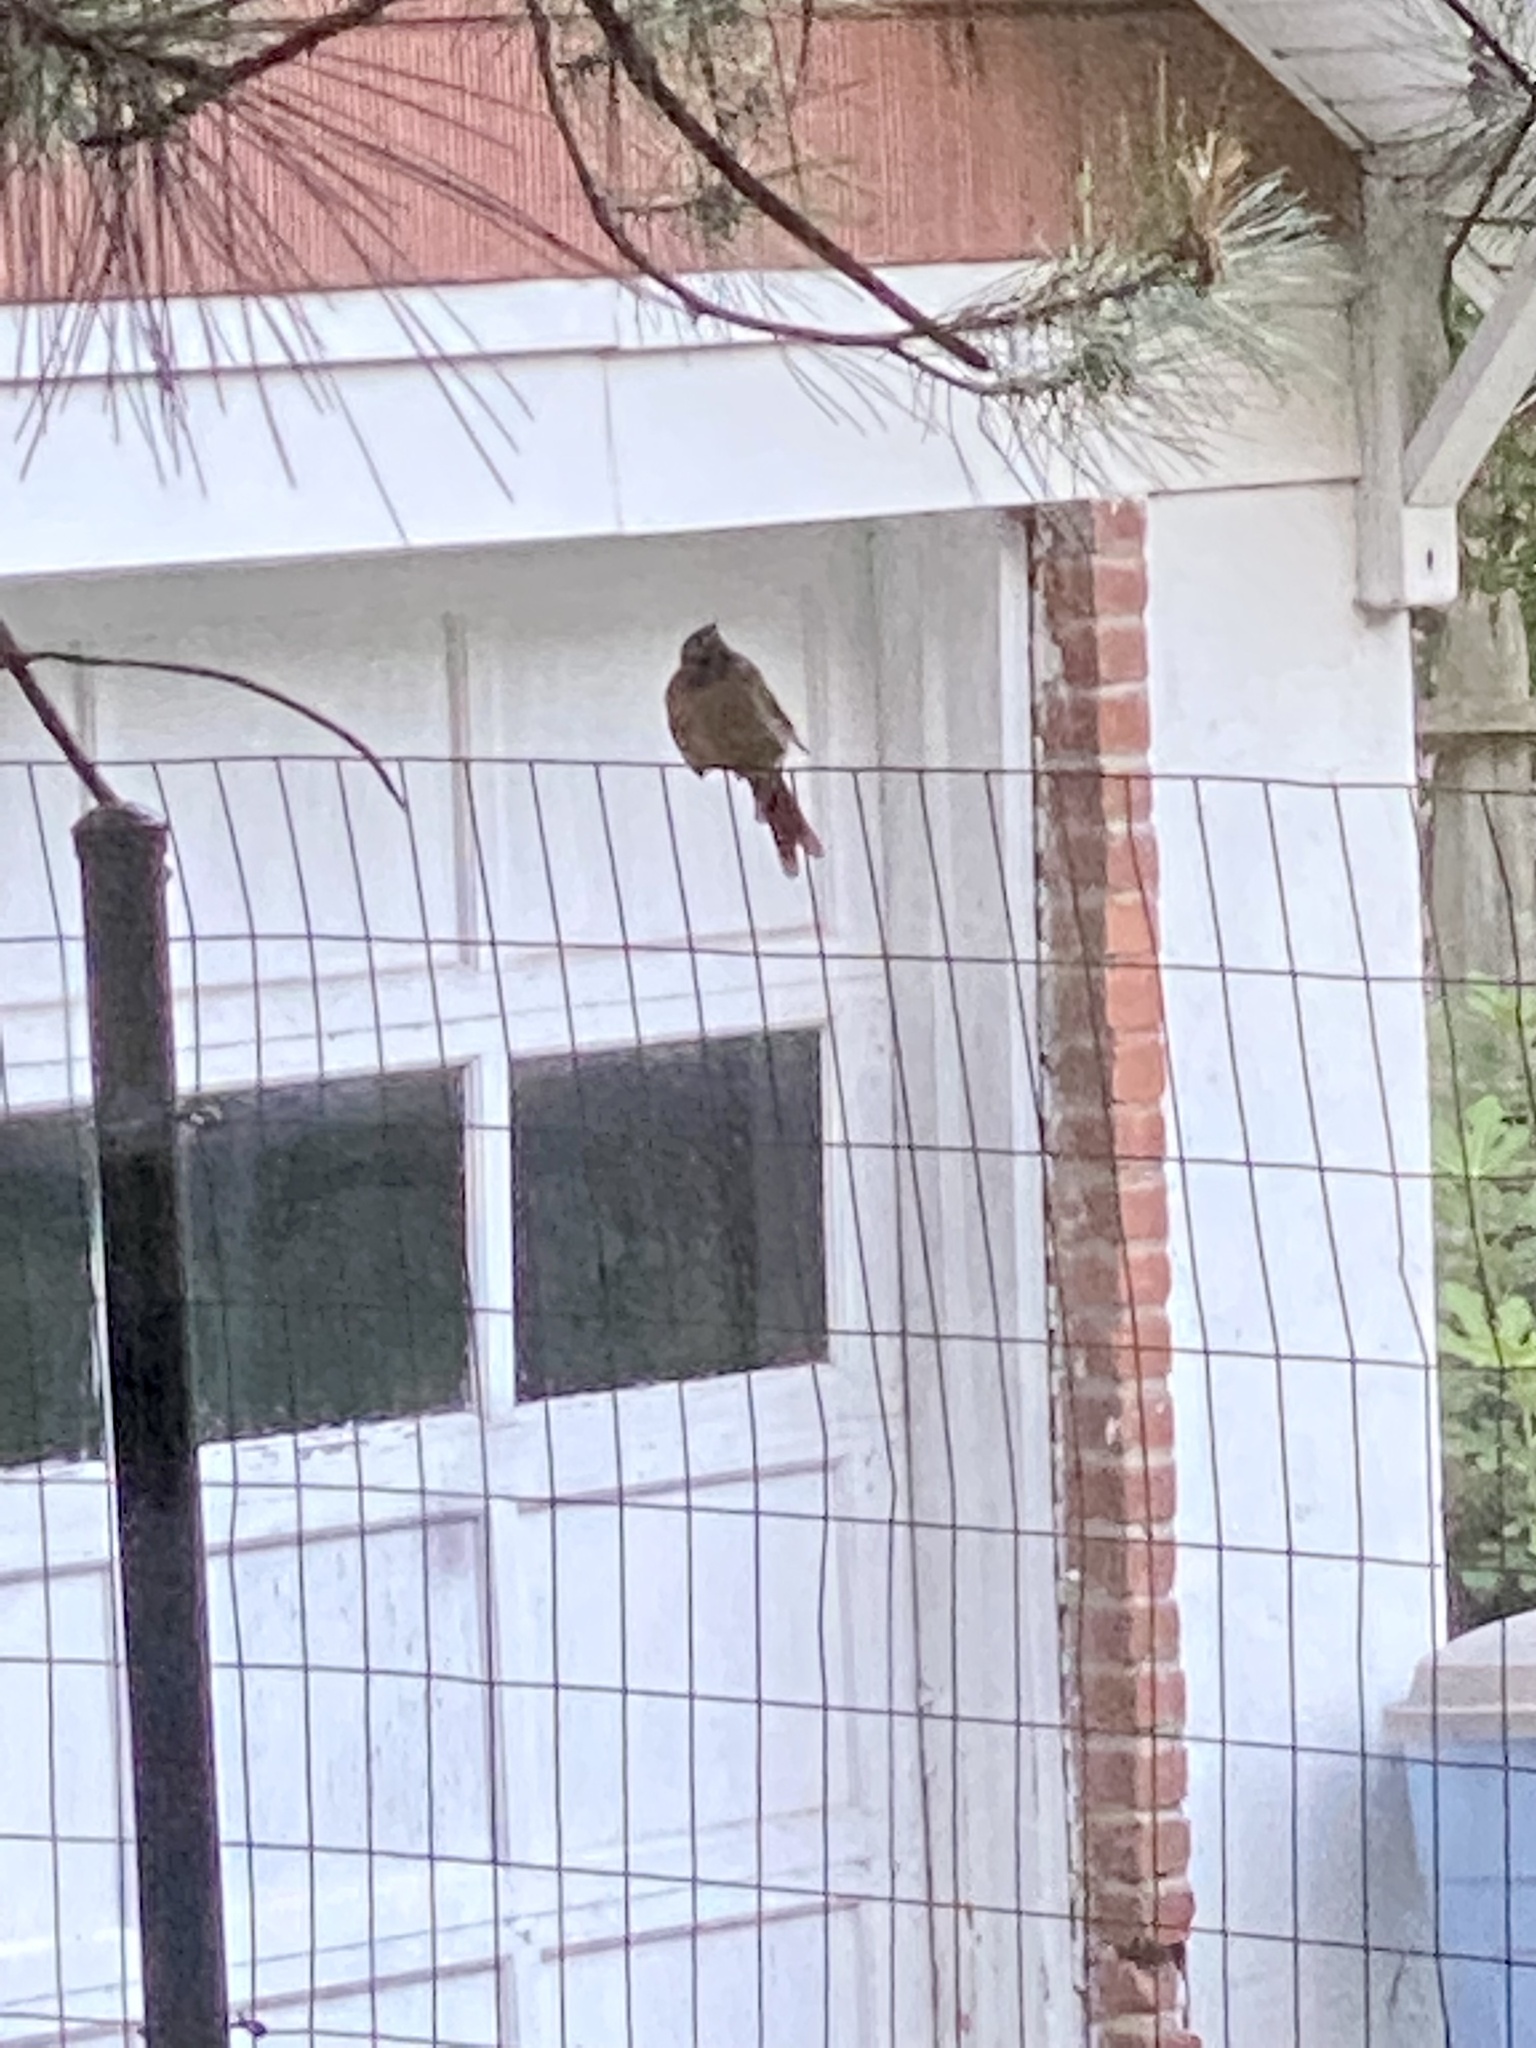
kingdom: Animalia
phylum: Chordata
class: Aves
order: Passeriformes
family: Cardinalidae
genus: Cardinalis
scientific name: Cardinalis cardinalis
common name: Northern cardinal
